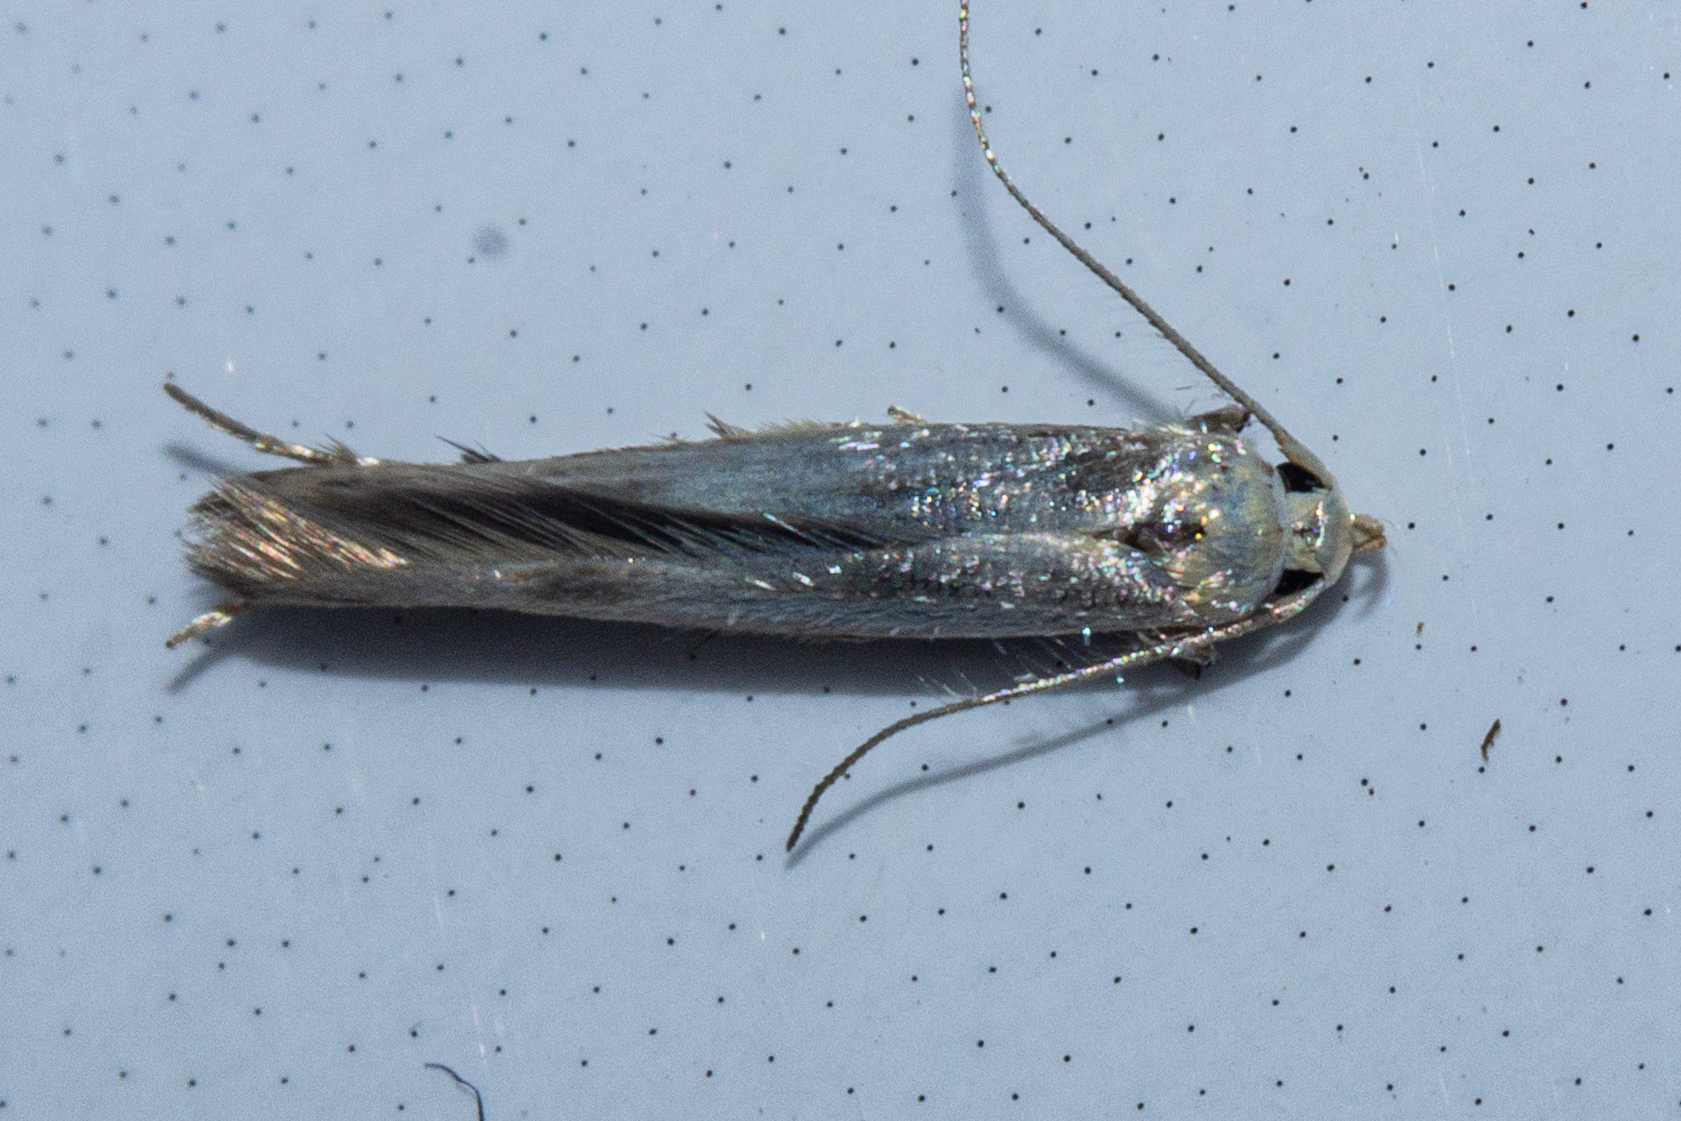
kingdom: Animalia
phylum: Arthropoda
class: Insecta
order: Lepidoptera
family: Stathmopodidae
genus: Stathmopoda
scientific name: Stathmopoda horticola
